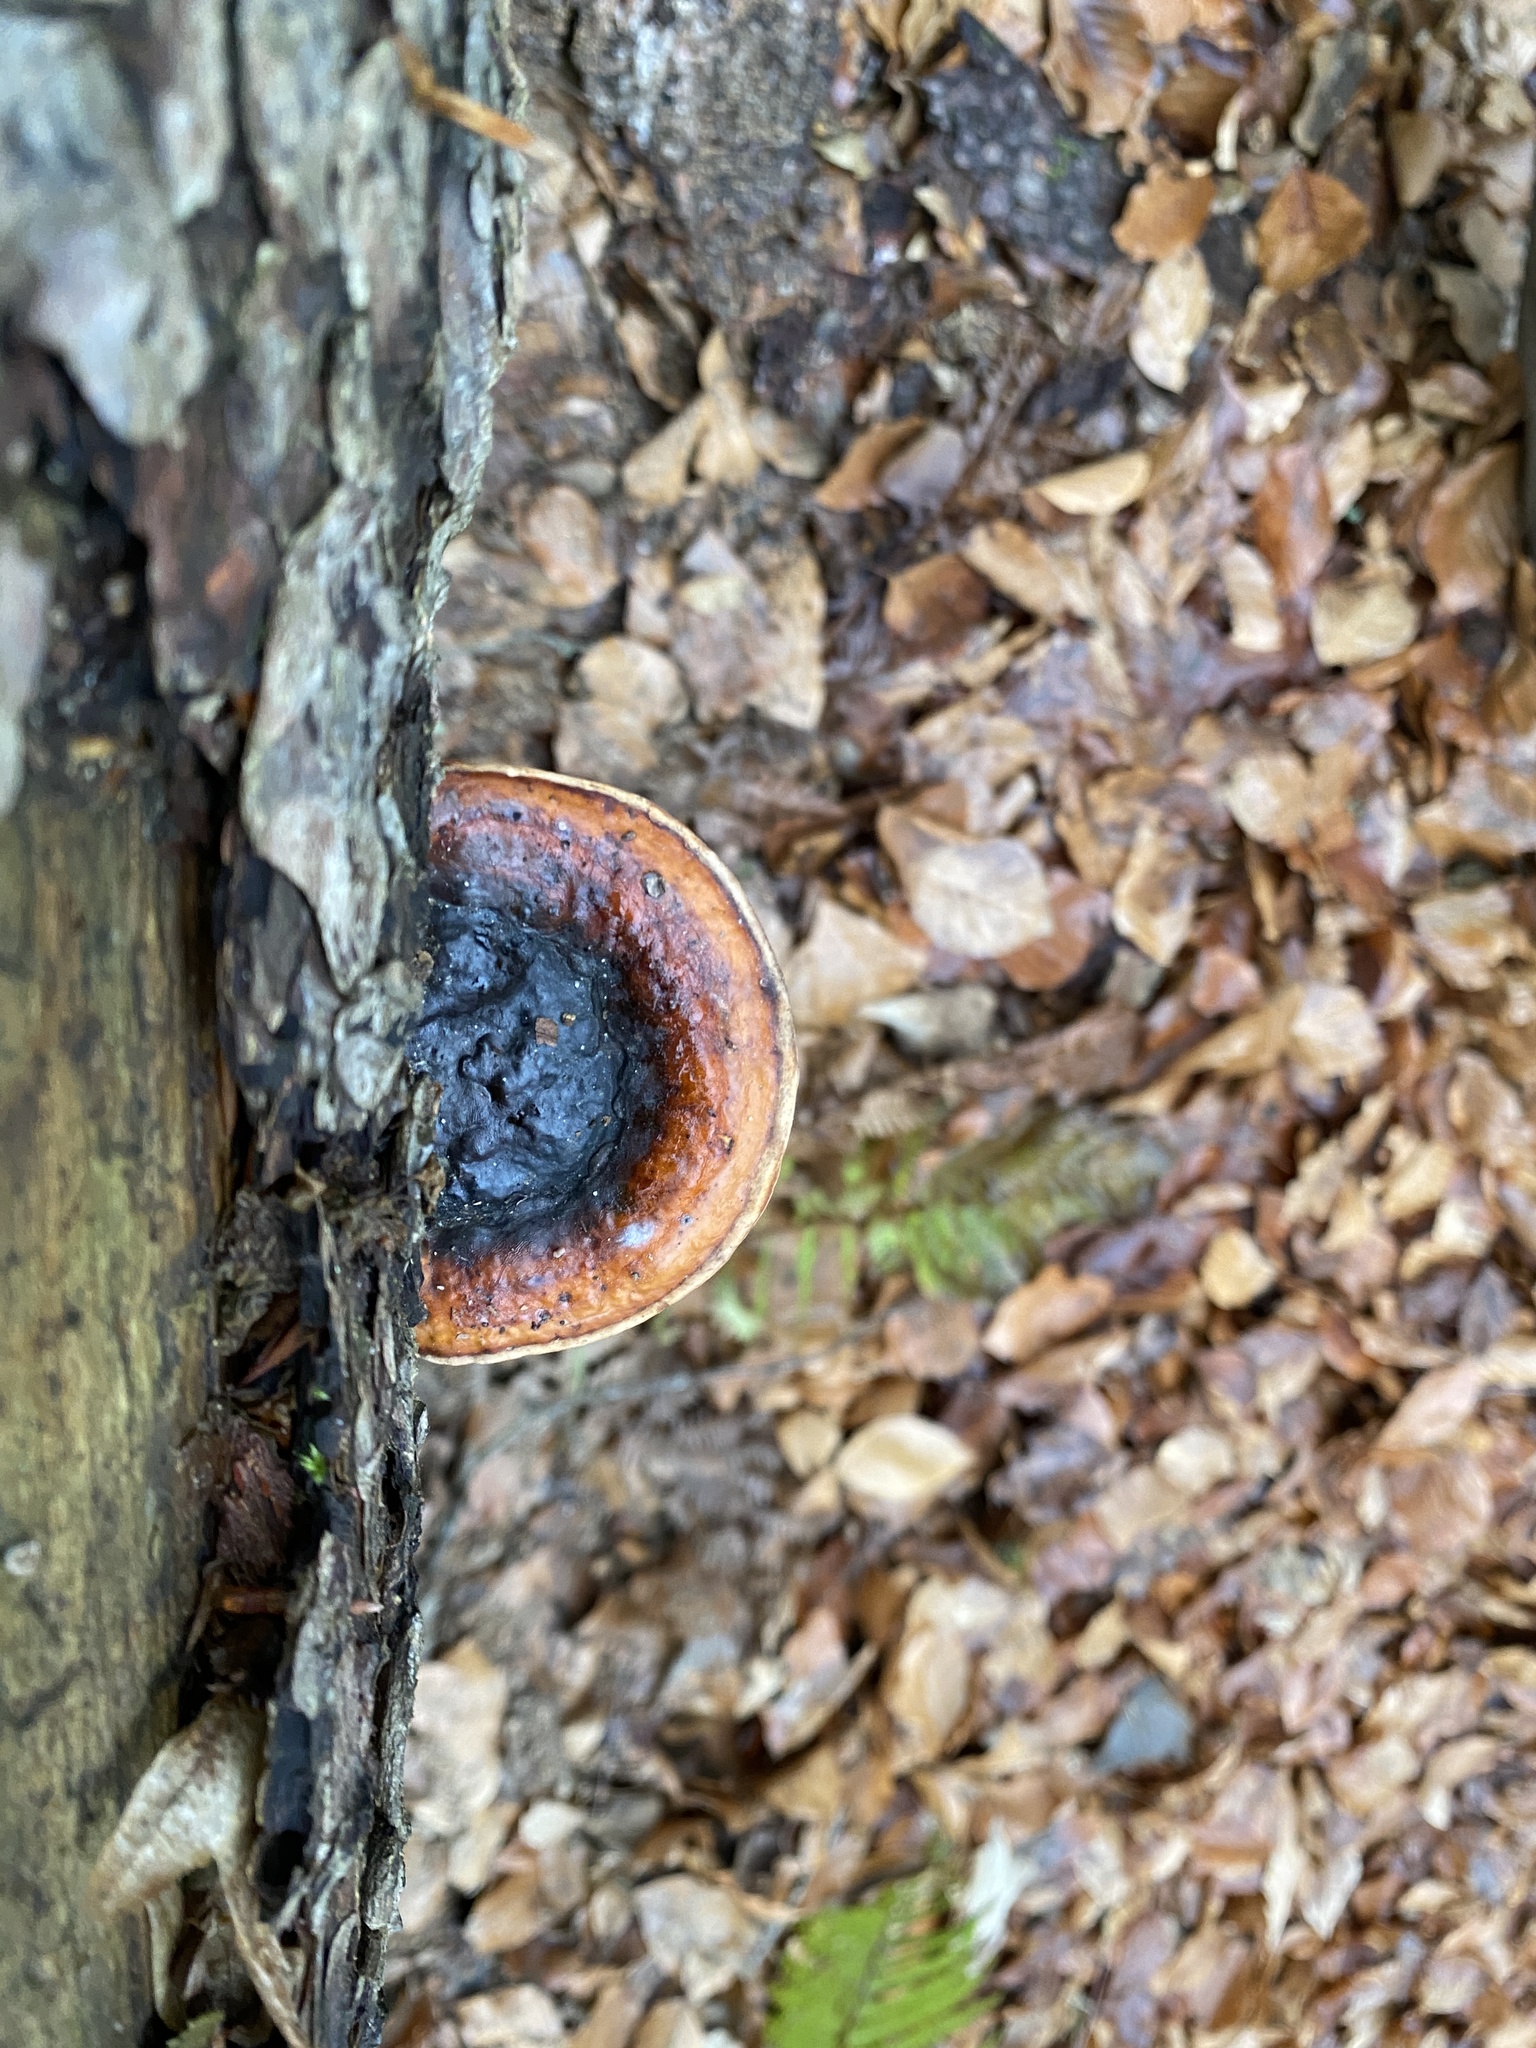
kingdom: Fungi
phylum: Basidiomycota
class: Agaricomycetes
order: Polyporales
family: Fomitopsidaceae
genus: Fomitopsis
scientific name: Fomitopsis pinicola
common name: Red-belted bracket
